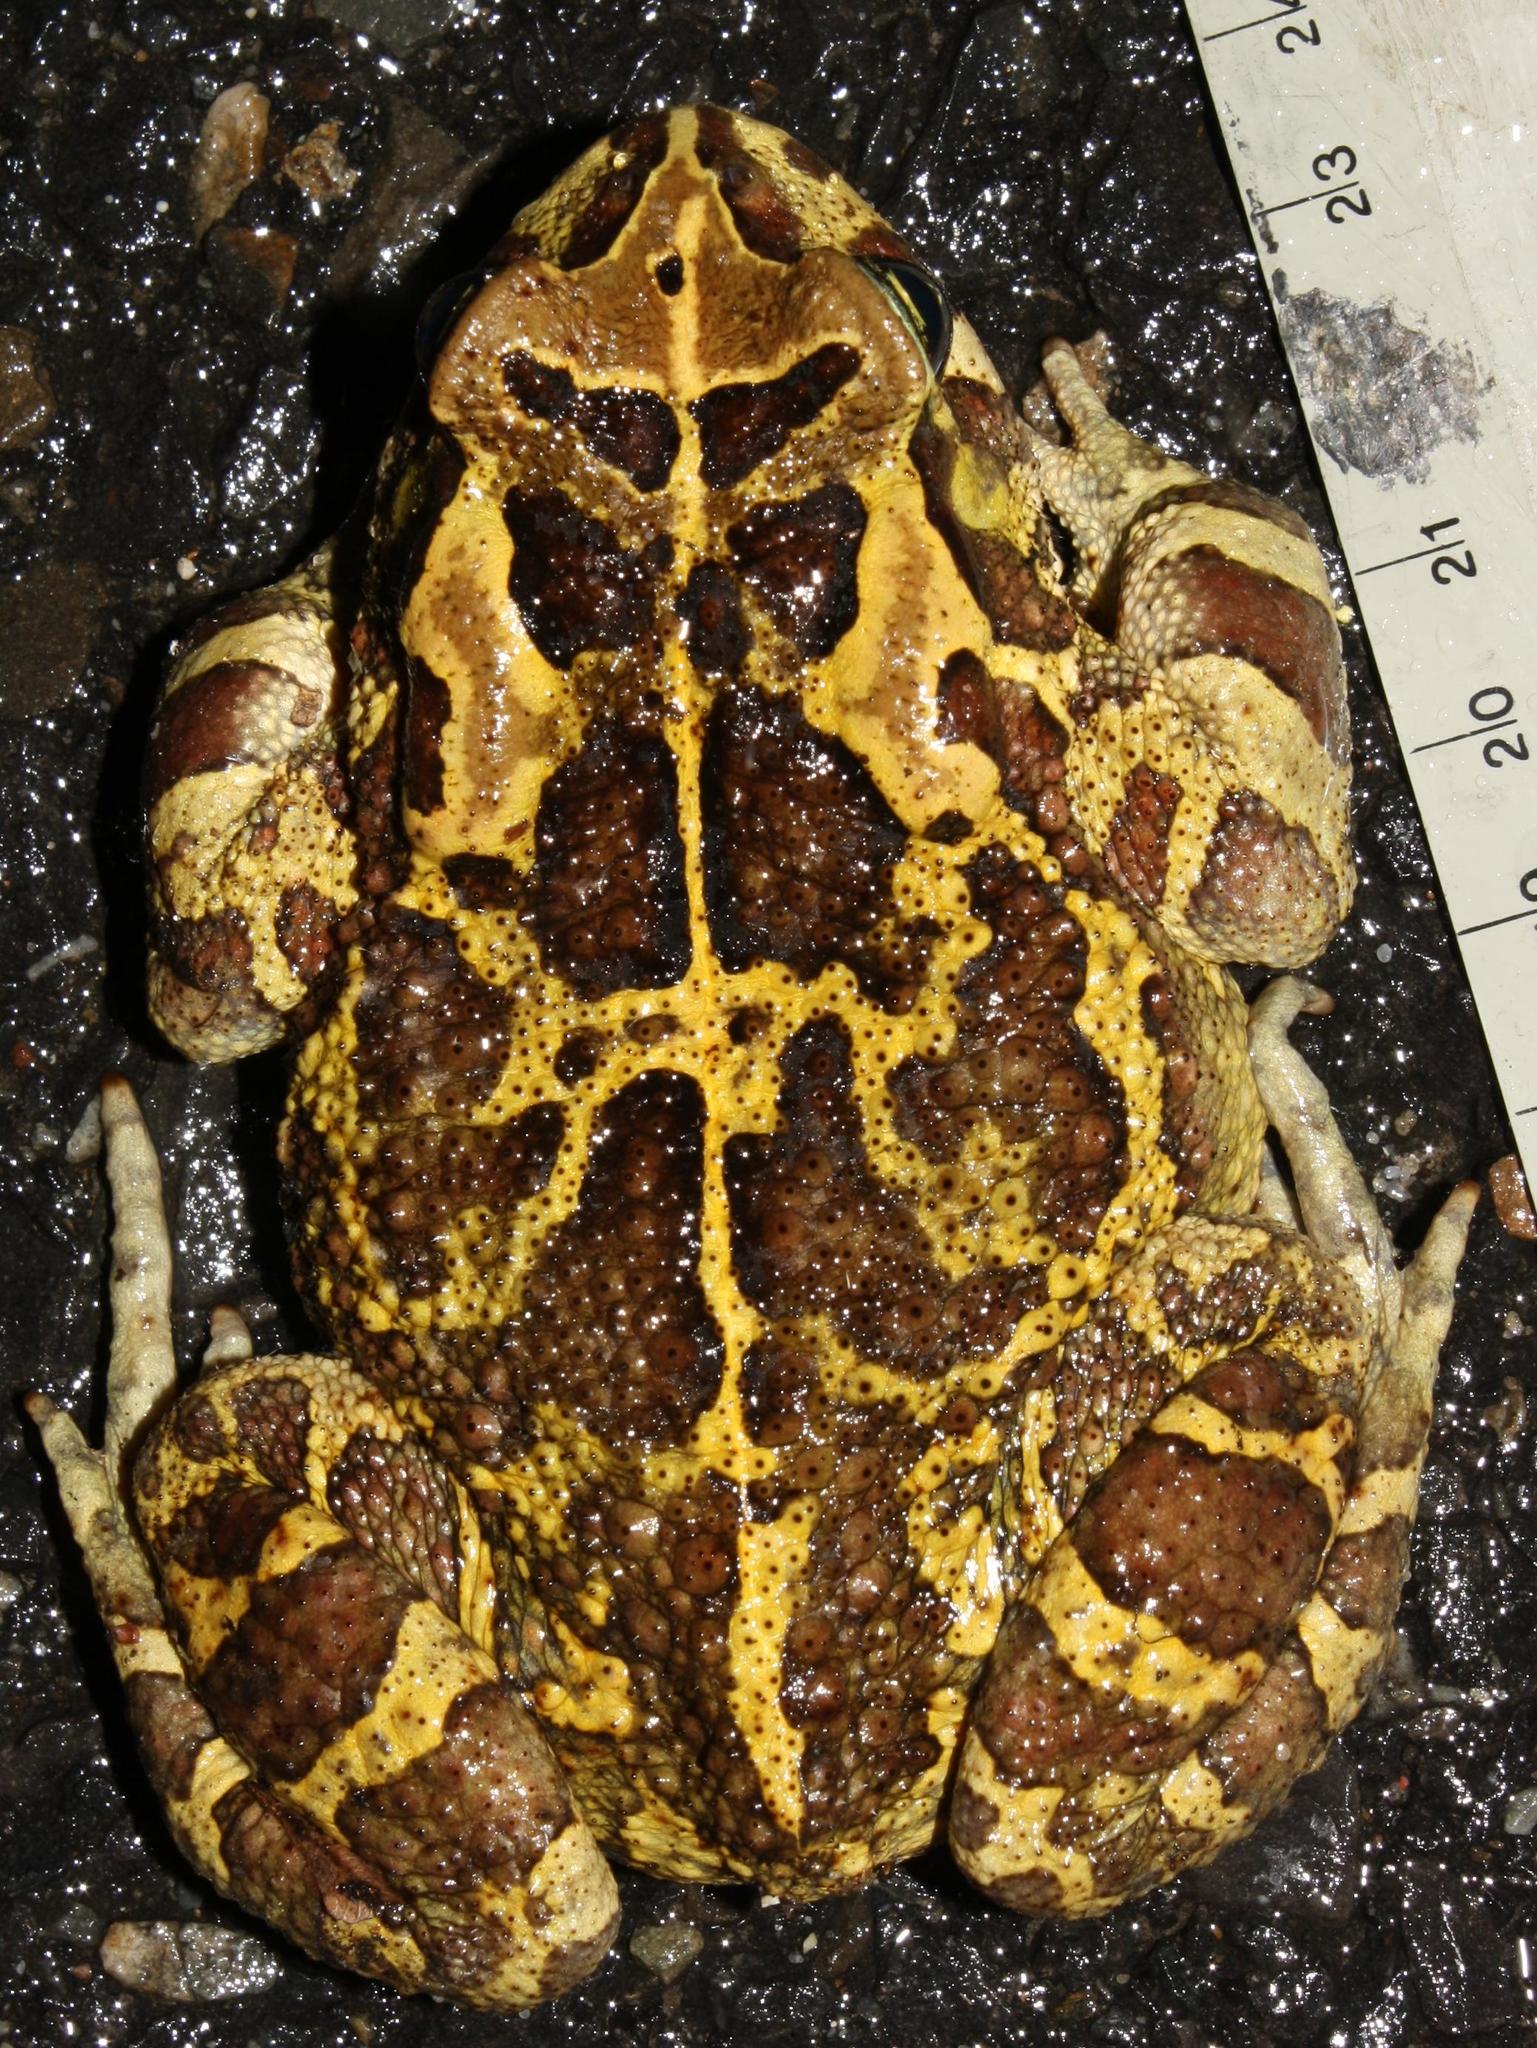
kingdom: Animalia
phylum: Chordata
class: Amphibia
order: Anura
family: Bufonidae
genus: Sclerophrys
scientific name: Sclerophrys pantherina
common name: Panther toad
